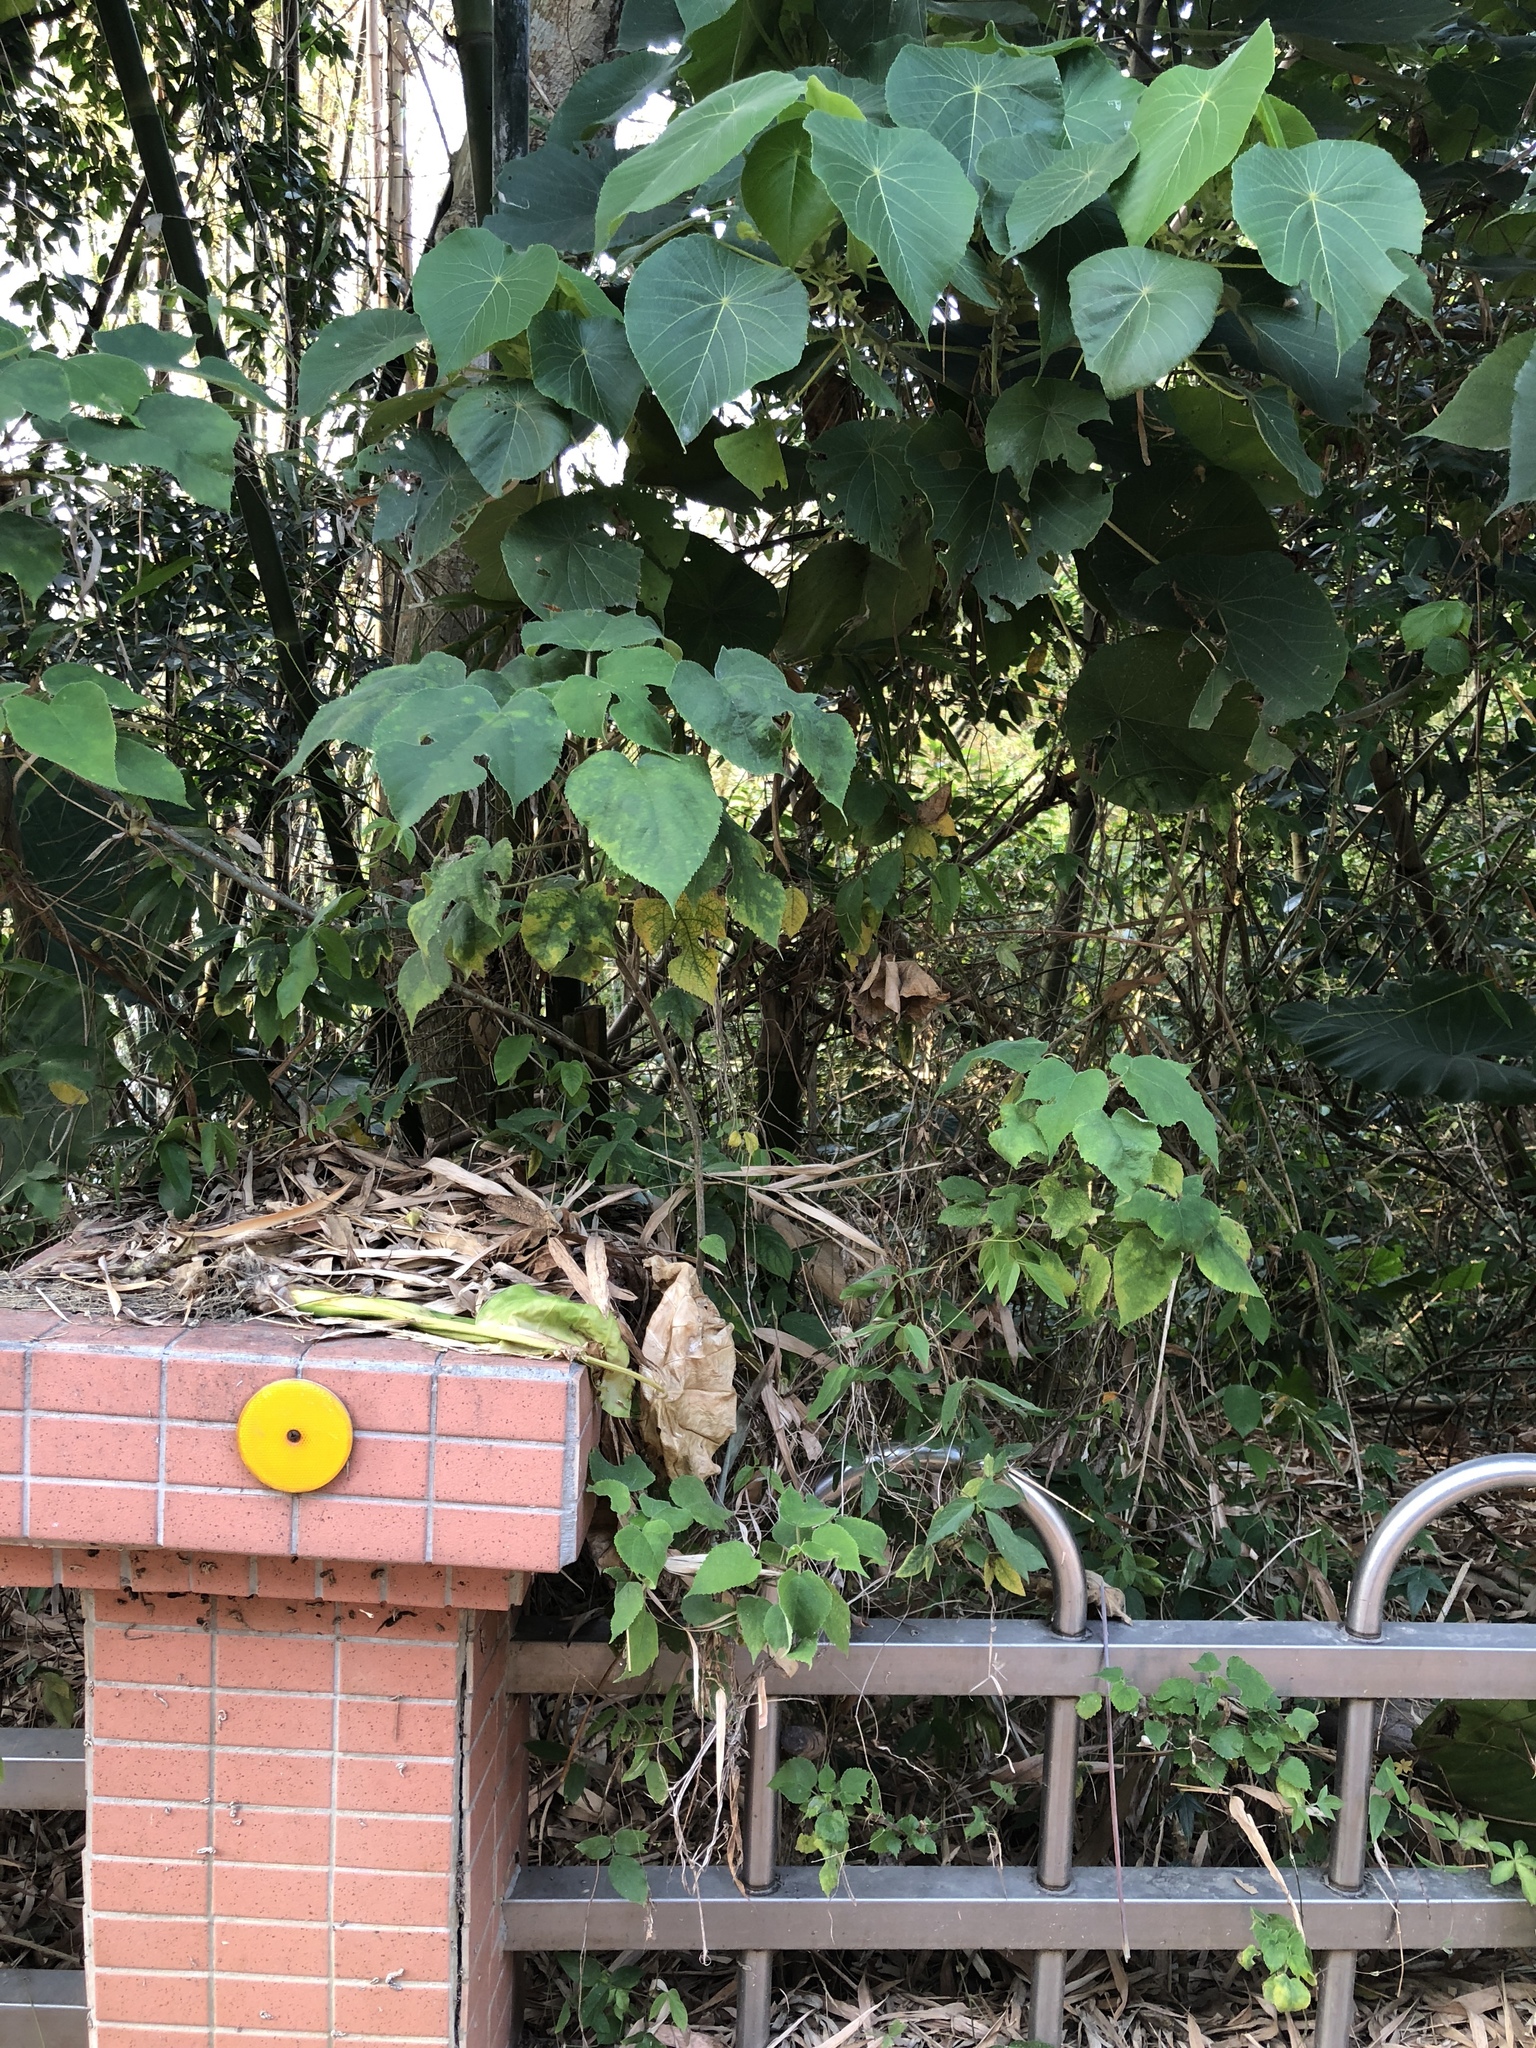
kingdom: Plantae
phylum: Tracheophyta
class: Magnoliopsida
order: Rosales
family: Moraceae
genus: Broussonetia
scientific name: Broussonetia papyrifera
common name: Paper mulberry
